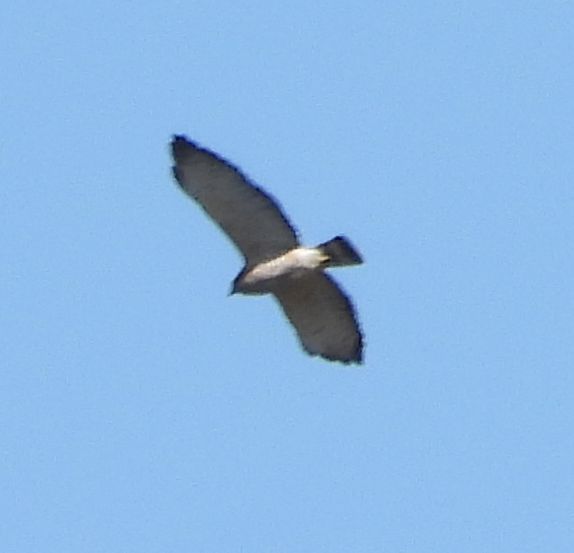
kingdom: Animalia
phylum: Chordata
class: Aves
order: Accipitriformes
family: Accipitridae
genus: Buteo
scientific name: Buteo platypterus
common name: Broad-winged hawk
